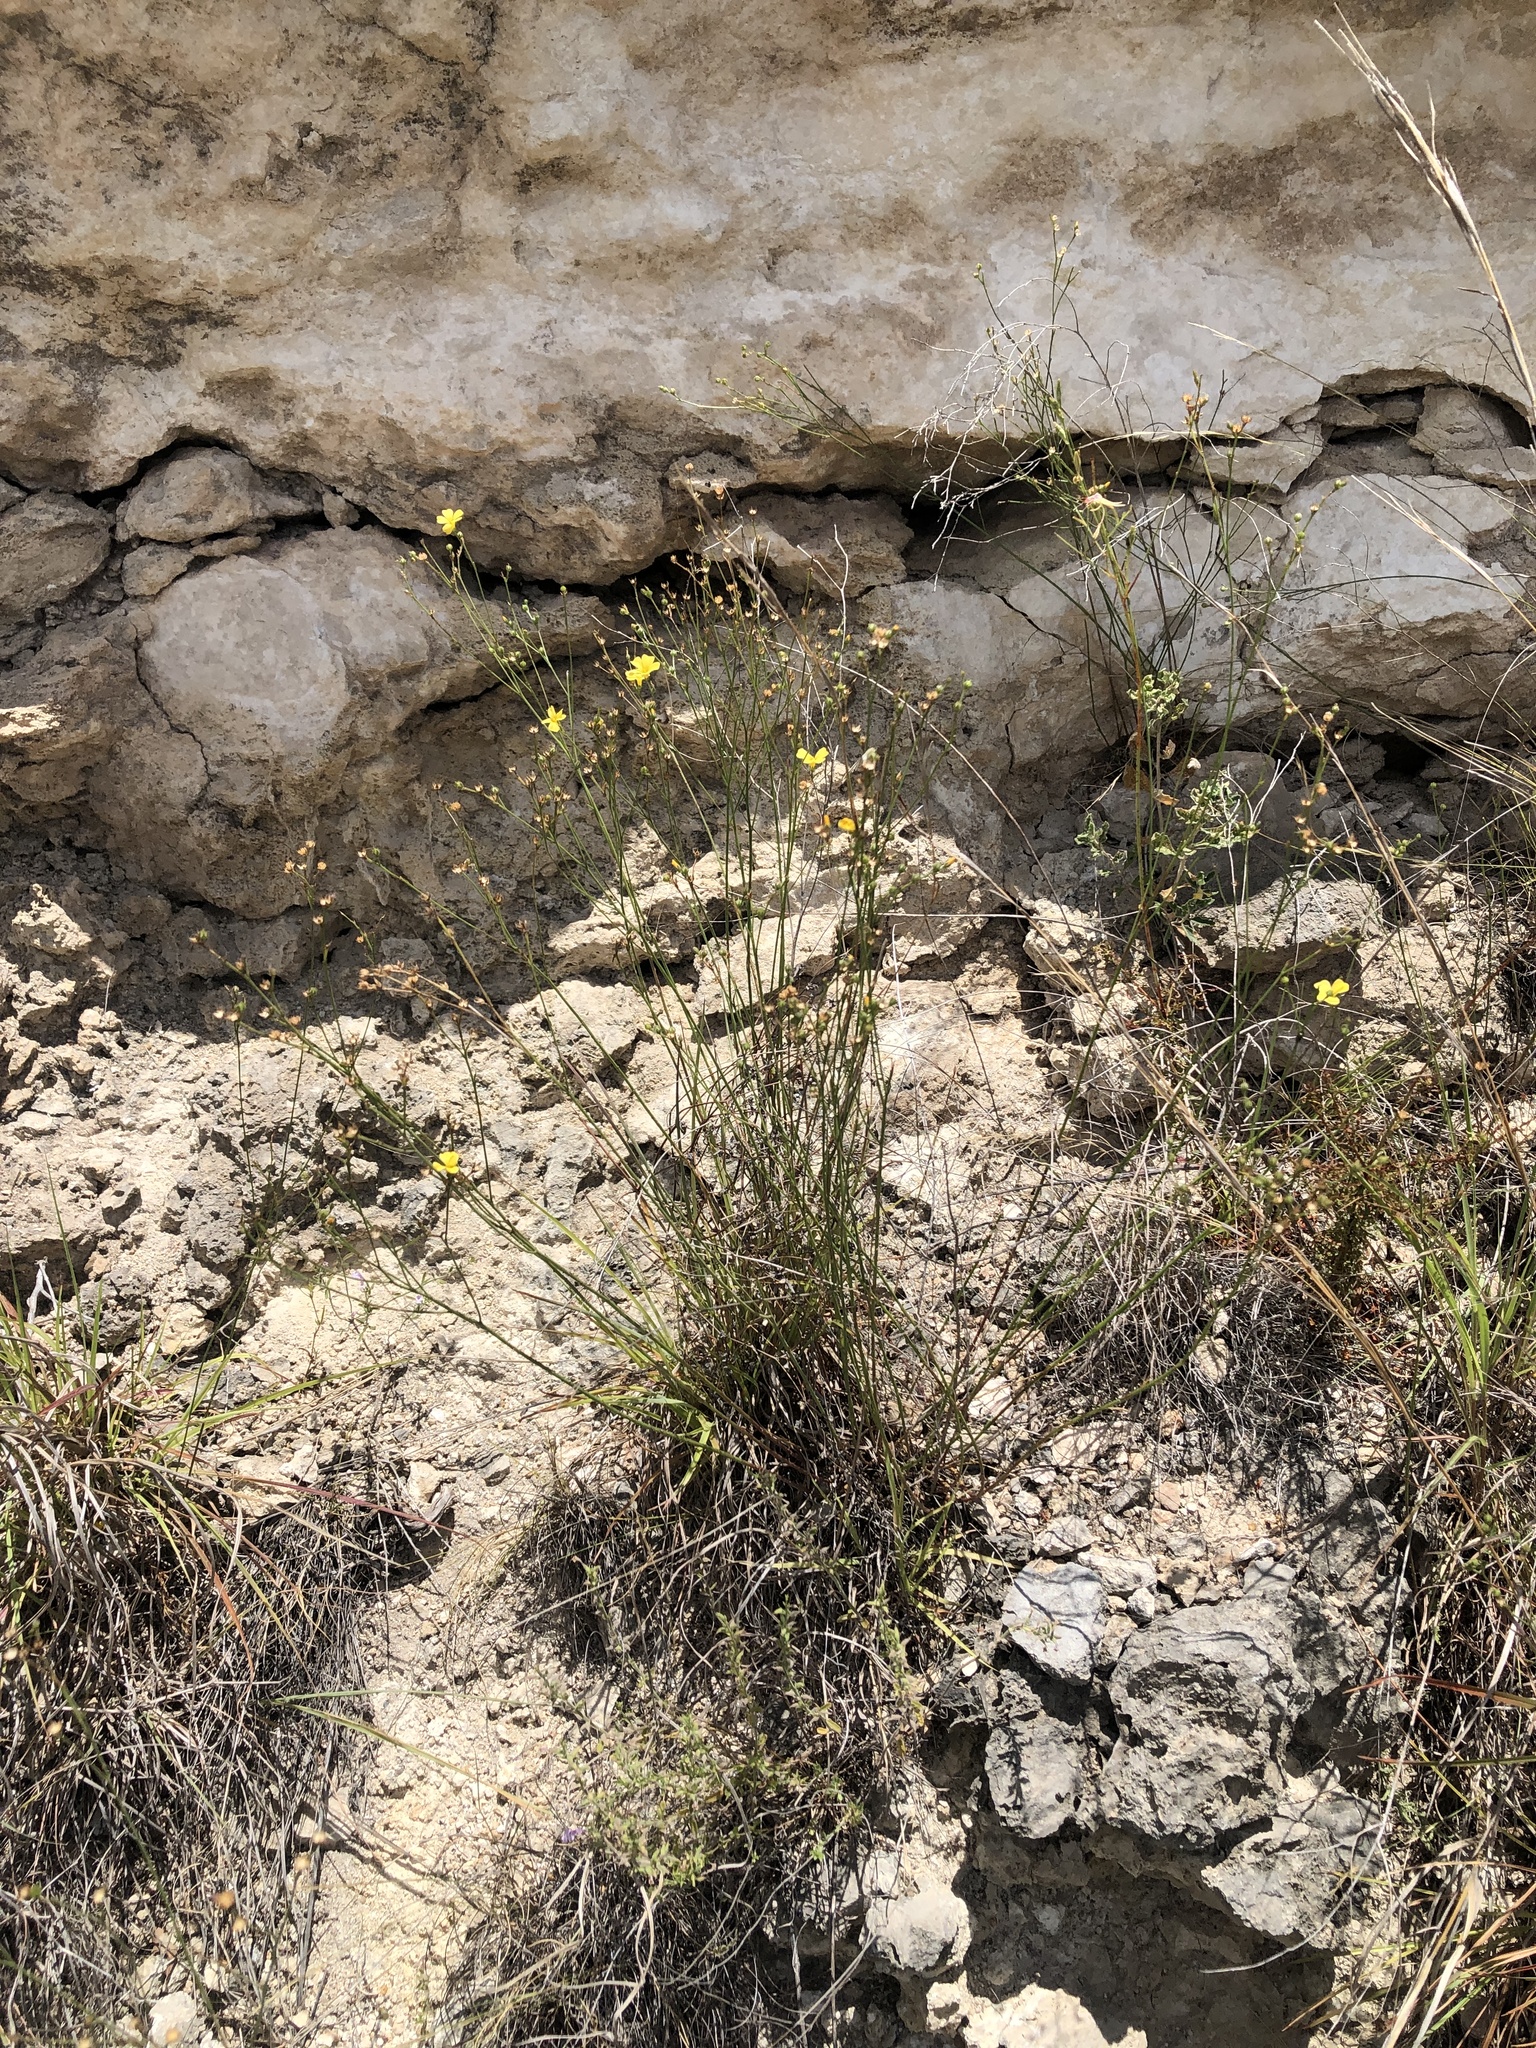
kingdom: Plantae
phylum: Tracheophyta
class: Magnoliopsida
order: Malpighiales
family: Linaceae
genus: Linum
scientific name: Linum rupestre
